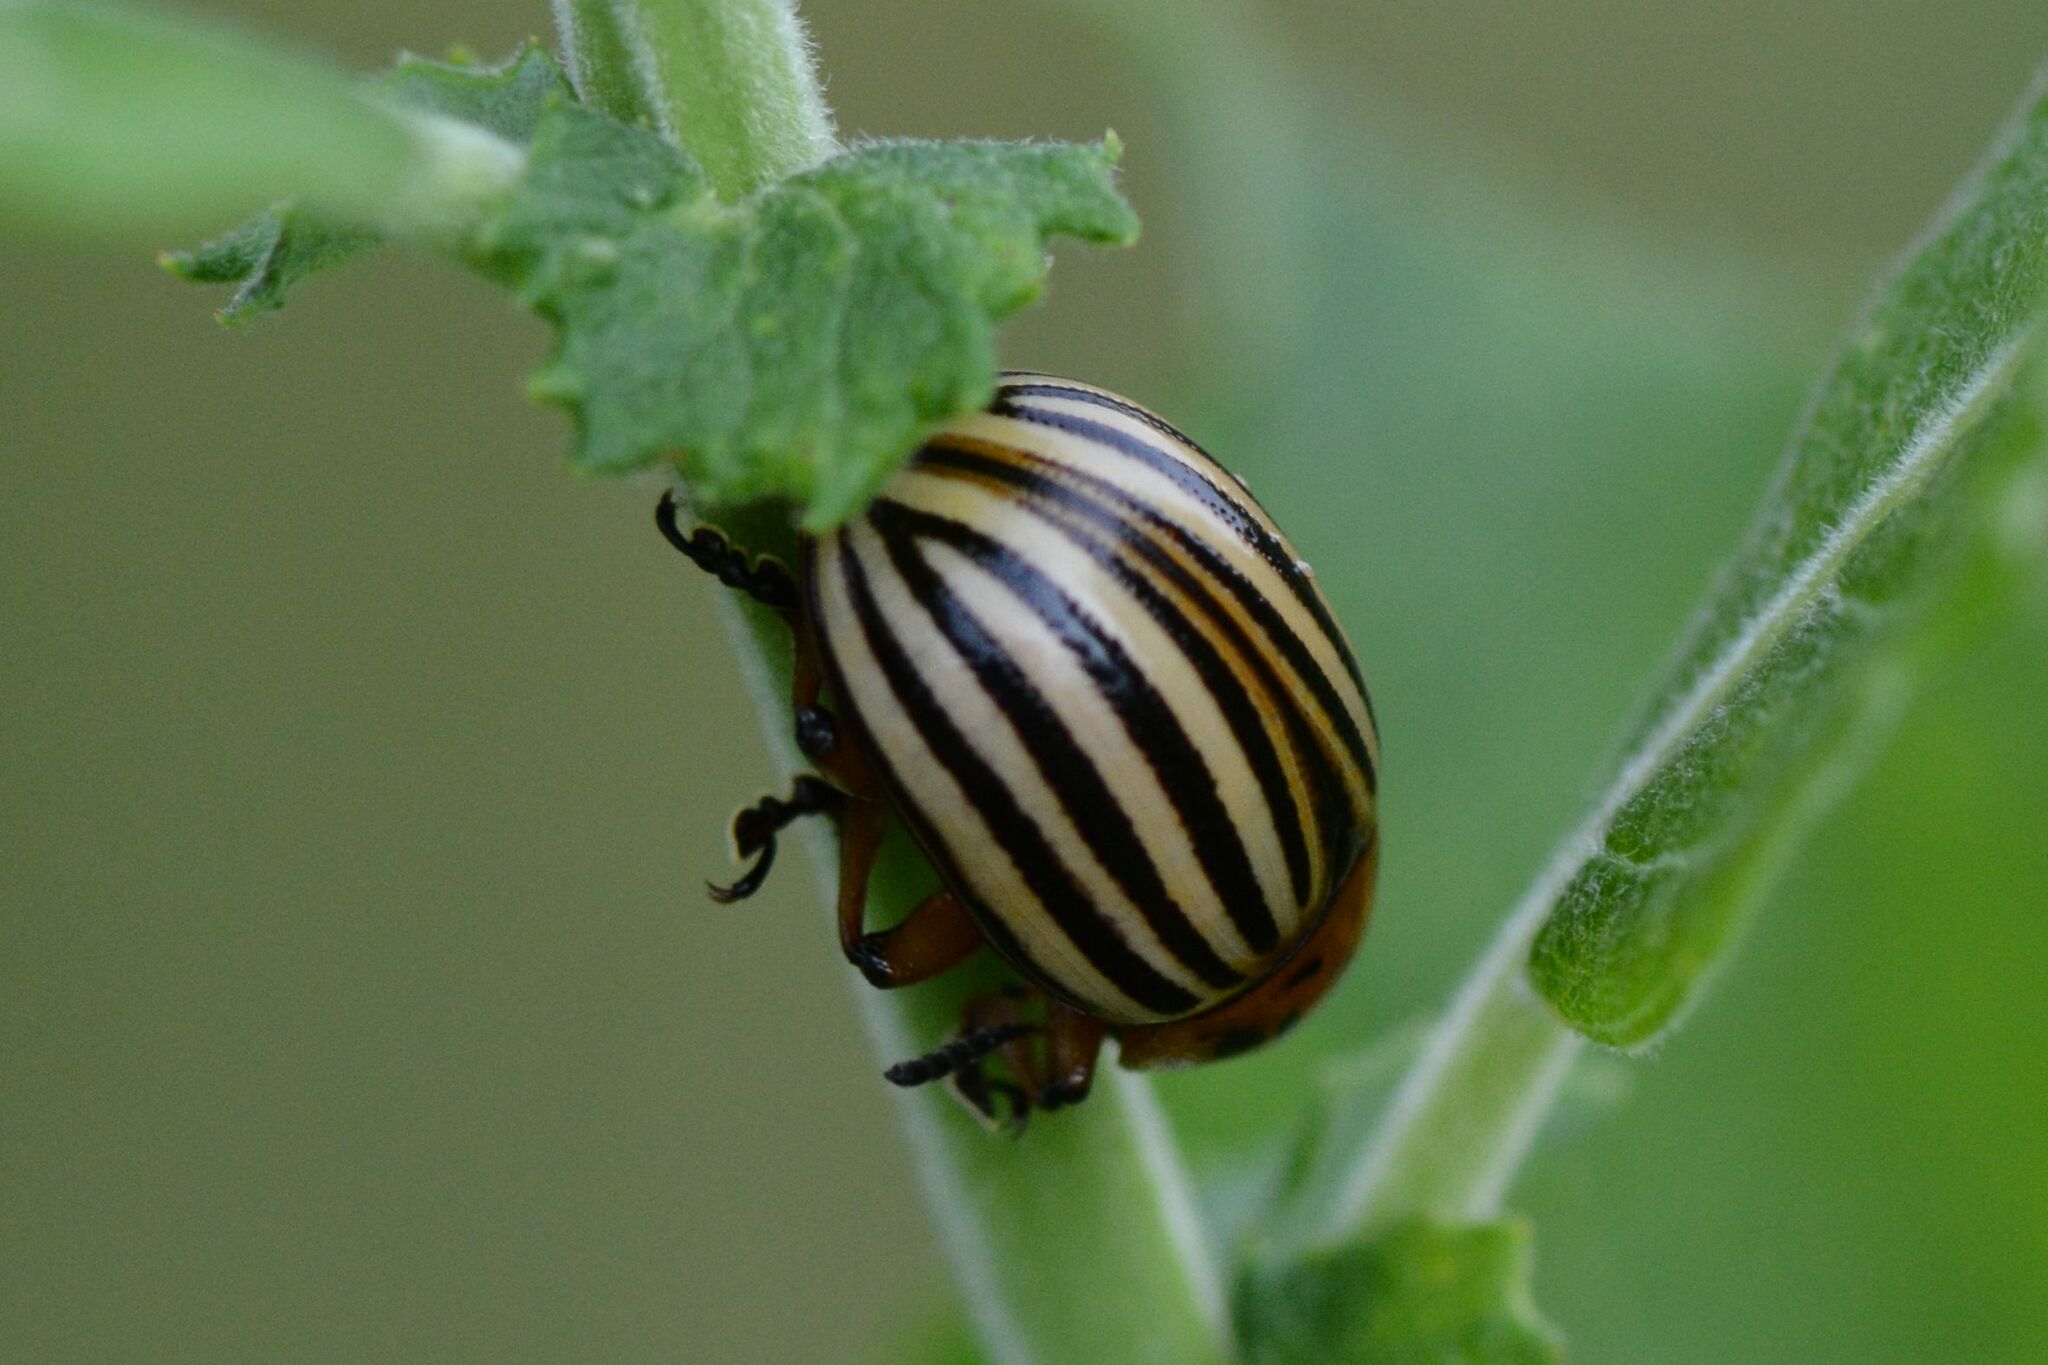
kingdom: Animalia
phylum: Arthropoda
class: Insecta
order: Coleoptera
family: Chrysomelidae
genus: Leptinotarsa
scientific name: Leptinotarsa decemlineata
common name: Colorado potato beetle
